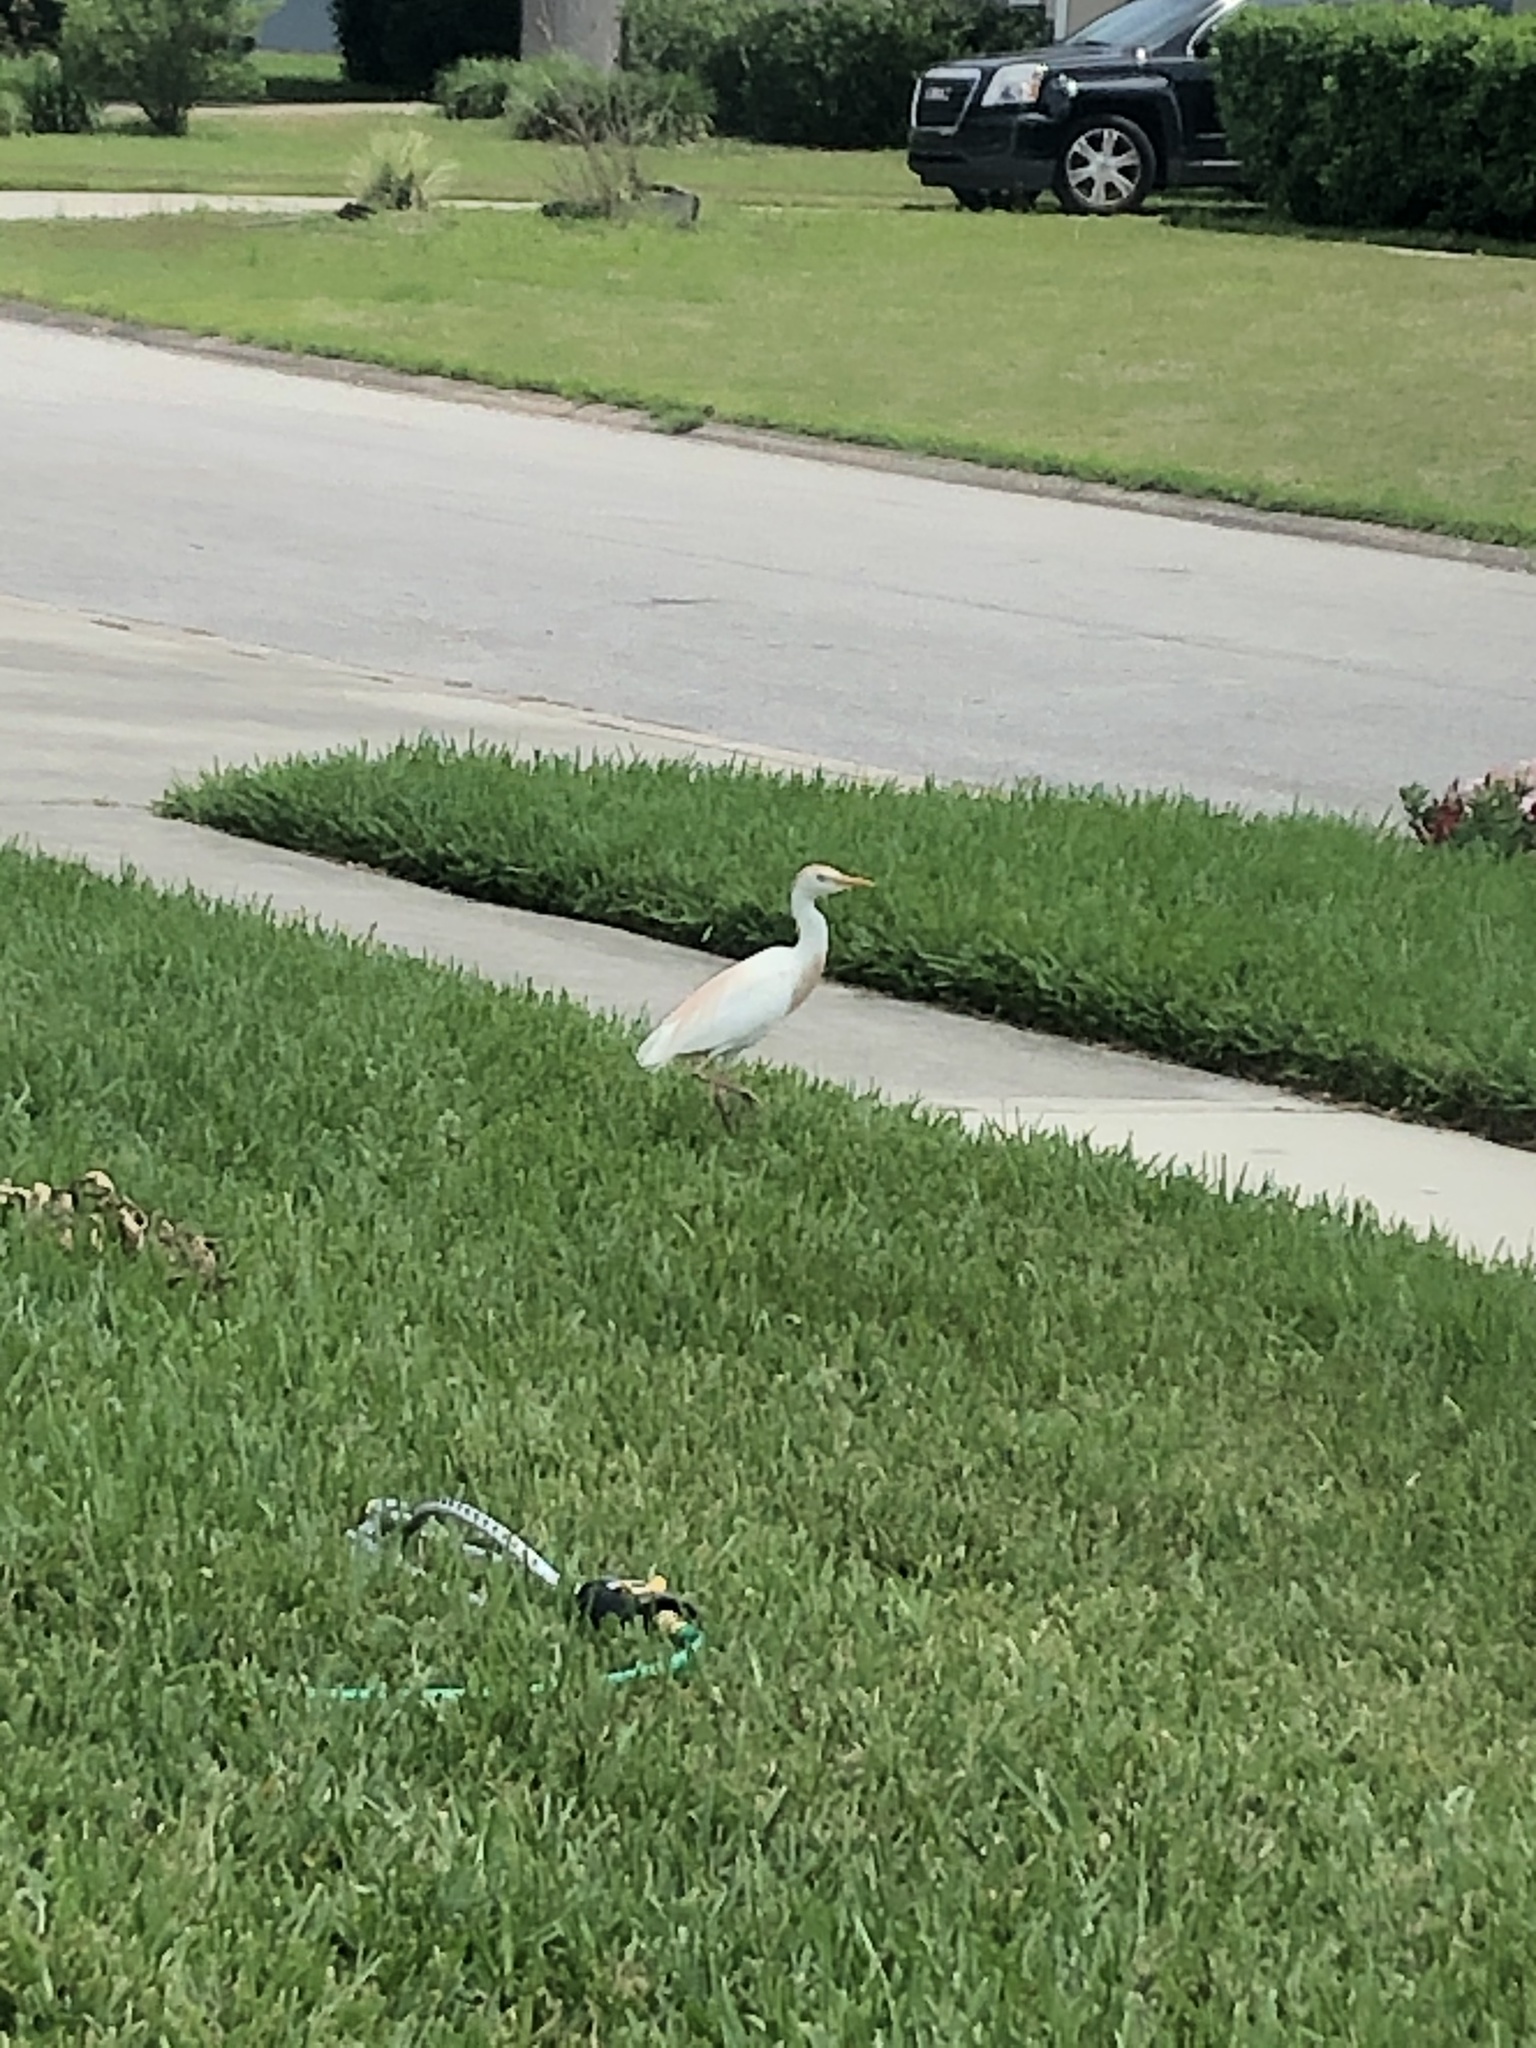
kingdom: Animalia
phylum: Chordata
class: Aves
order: Pelecaniformes
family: Ardeidae
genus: Bubulcus
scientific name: Bubulcus ibis
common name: Cattle egret
